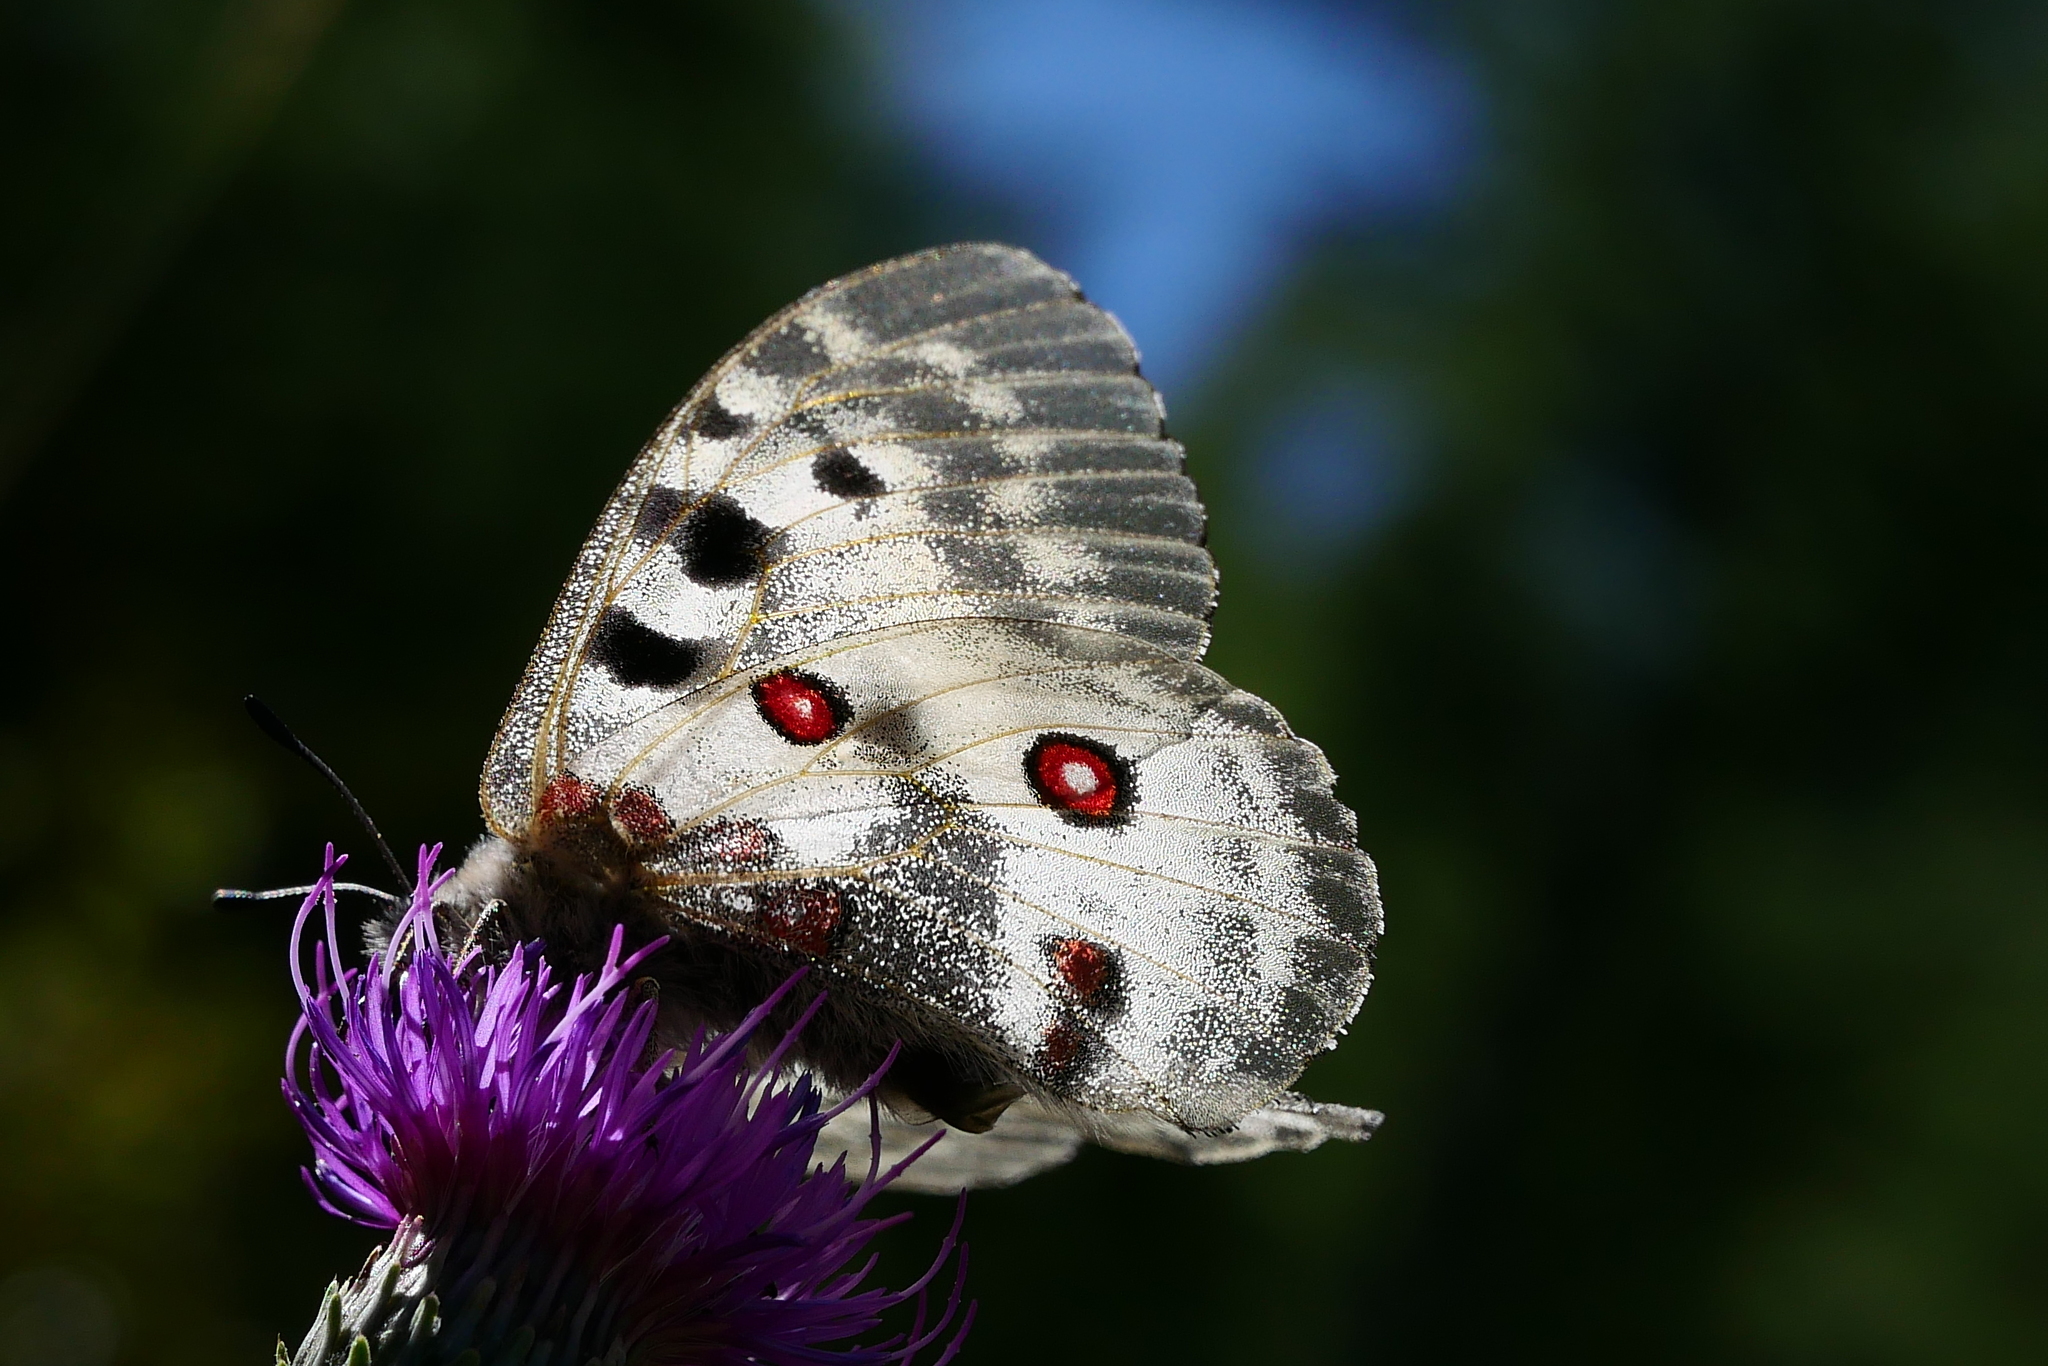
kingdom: Animalia
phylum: Arthropoda
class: Insecta
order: Lepidoptera
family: Papilionidae
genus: Parnassius
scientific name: Parnassius apollo
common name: Apollo
